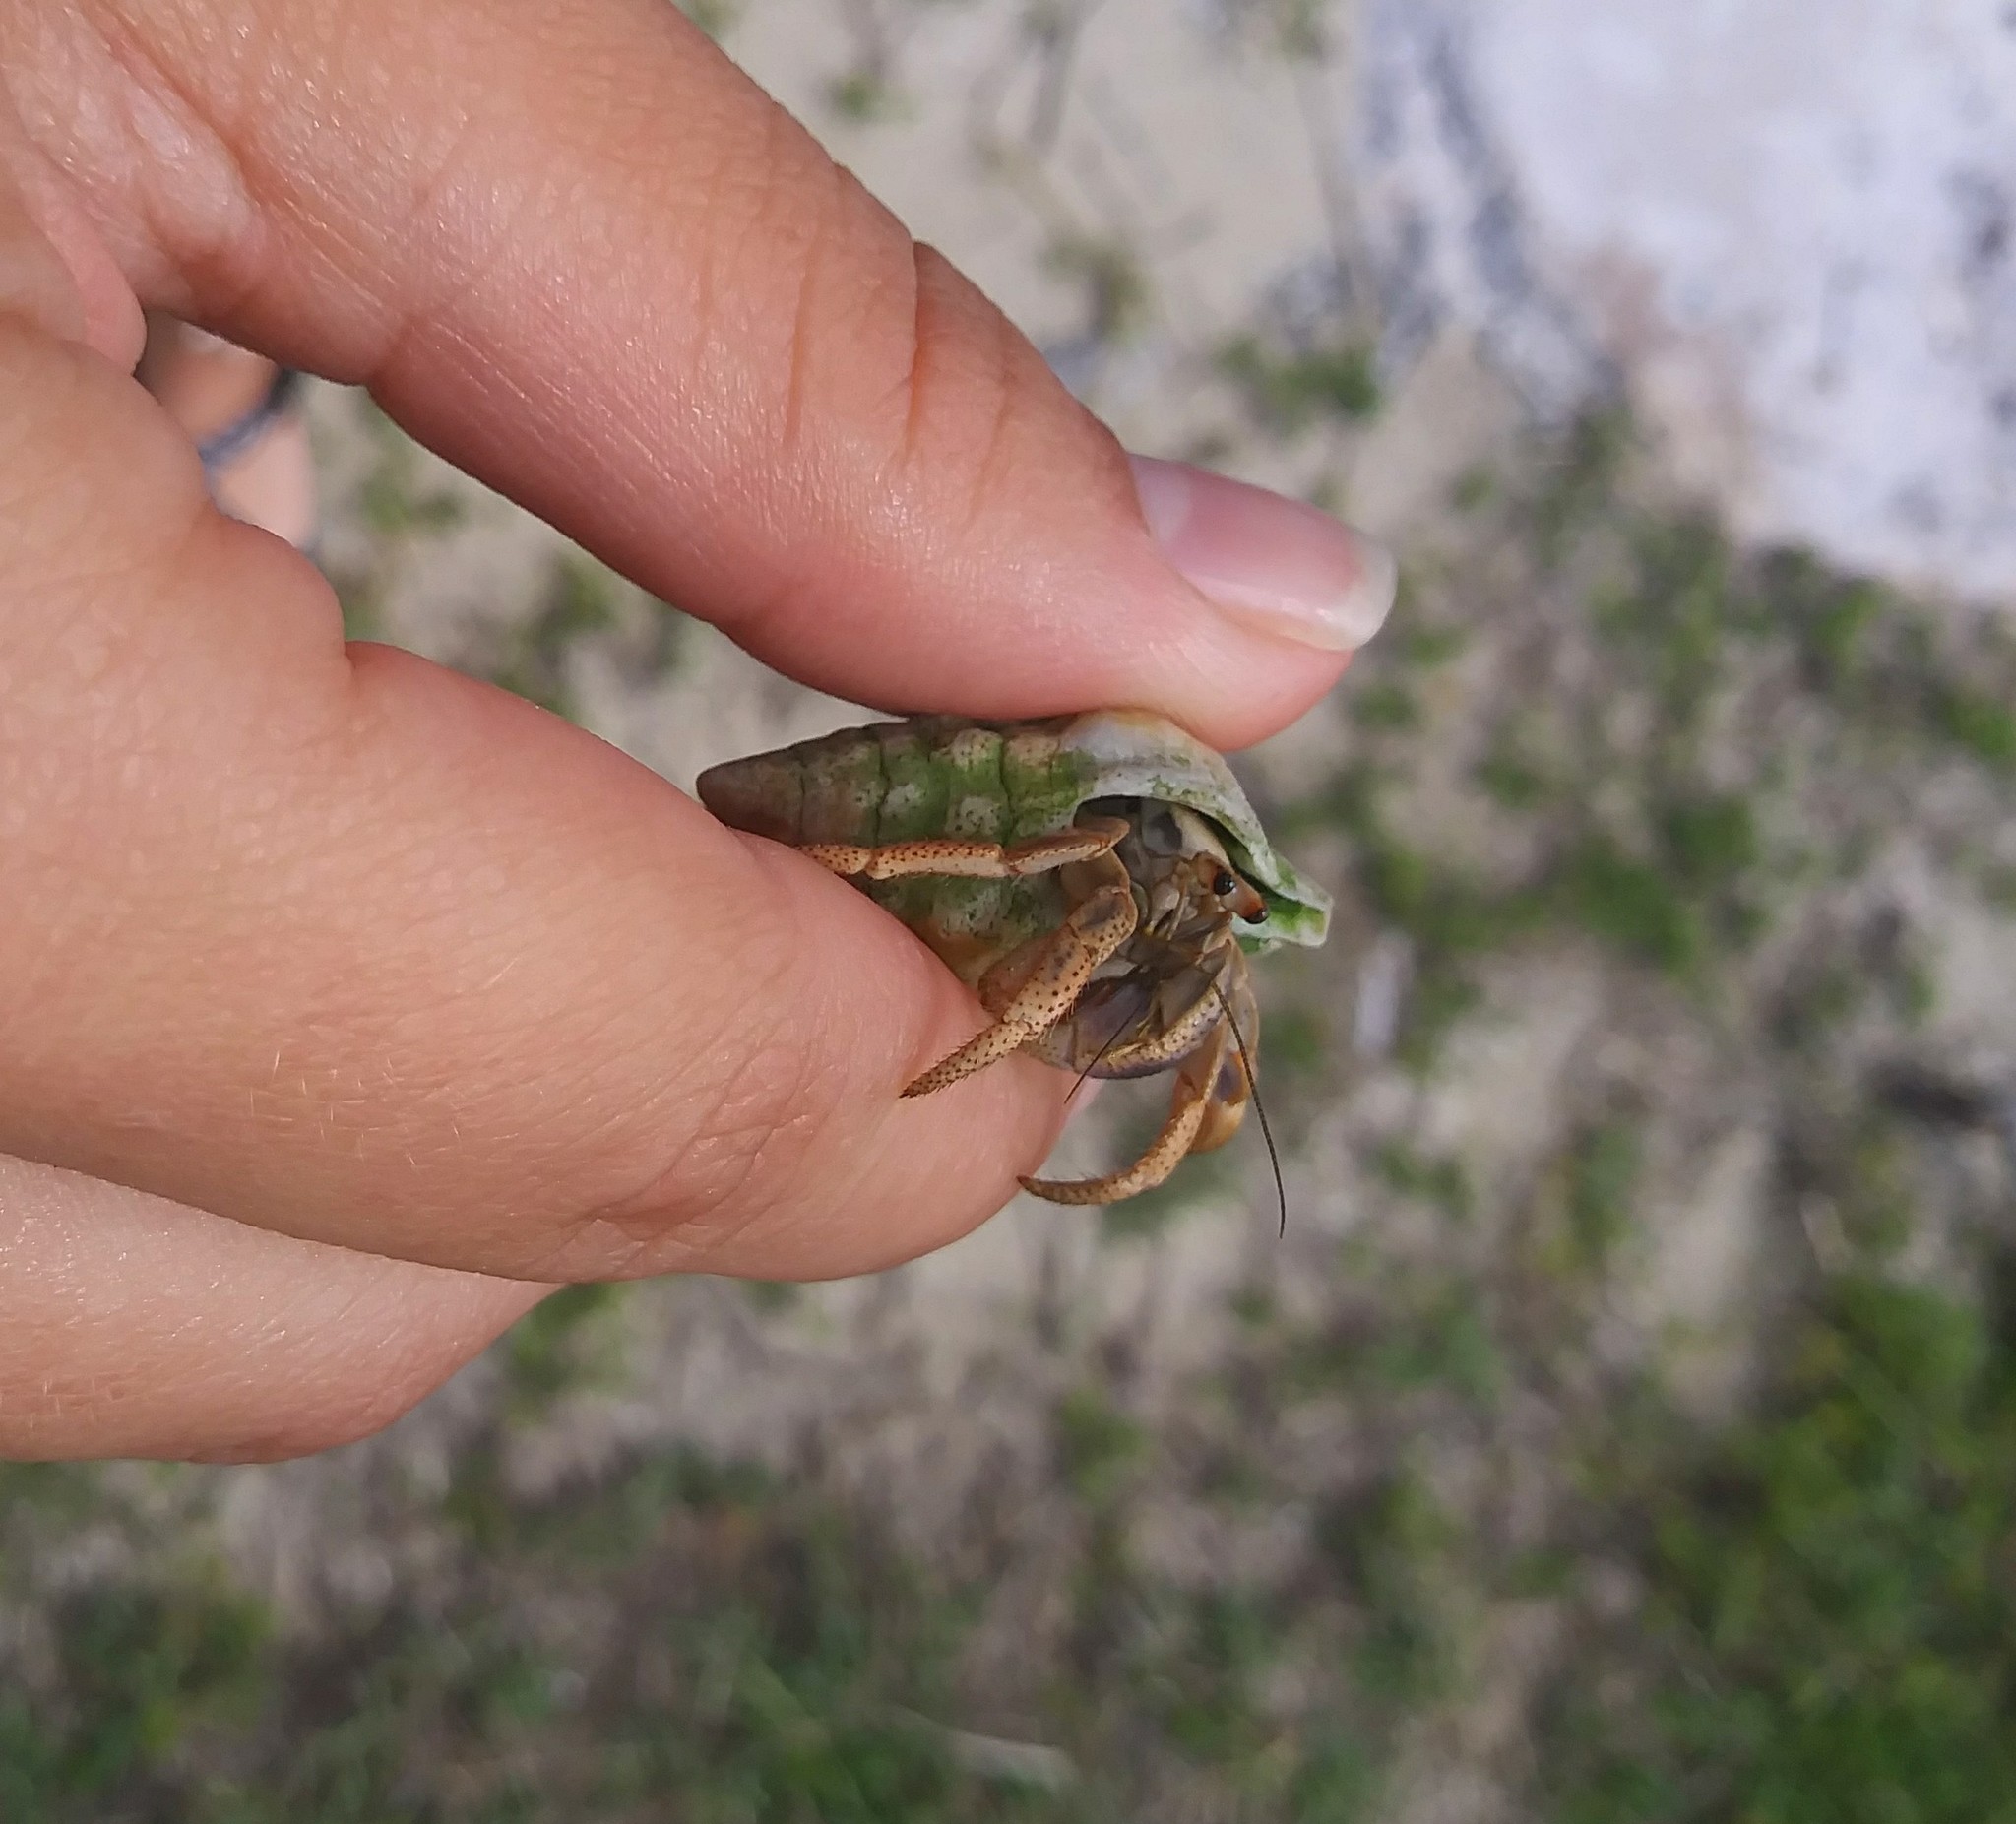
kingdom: Animalia
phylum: Arthropoda
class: Malacostraca
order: Decapoda
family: Coenobitidae
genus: Coenobita
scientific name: Coenobita clypeatus
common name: Caribbean hermit crab
